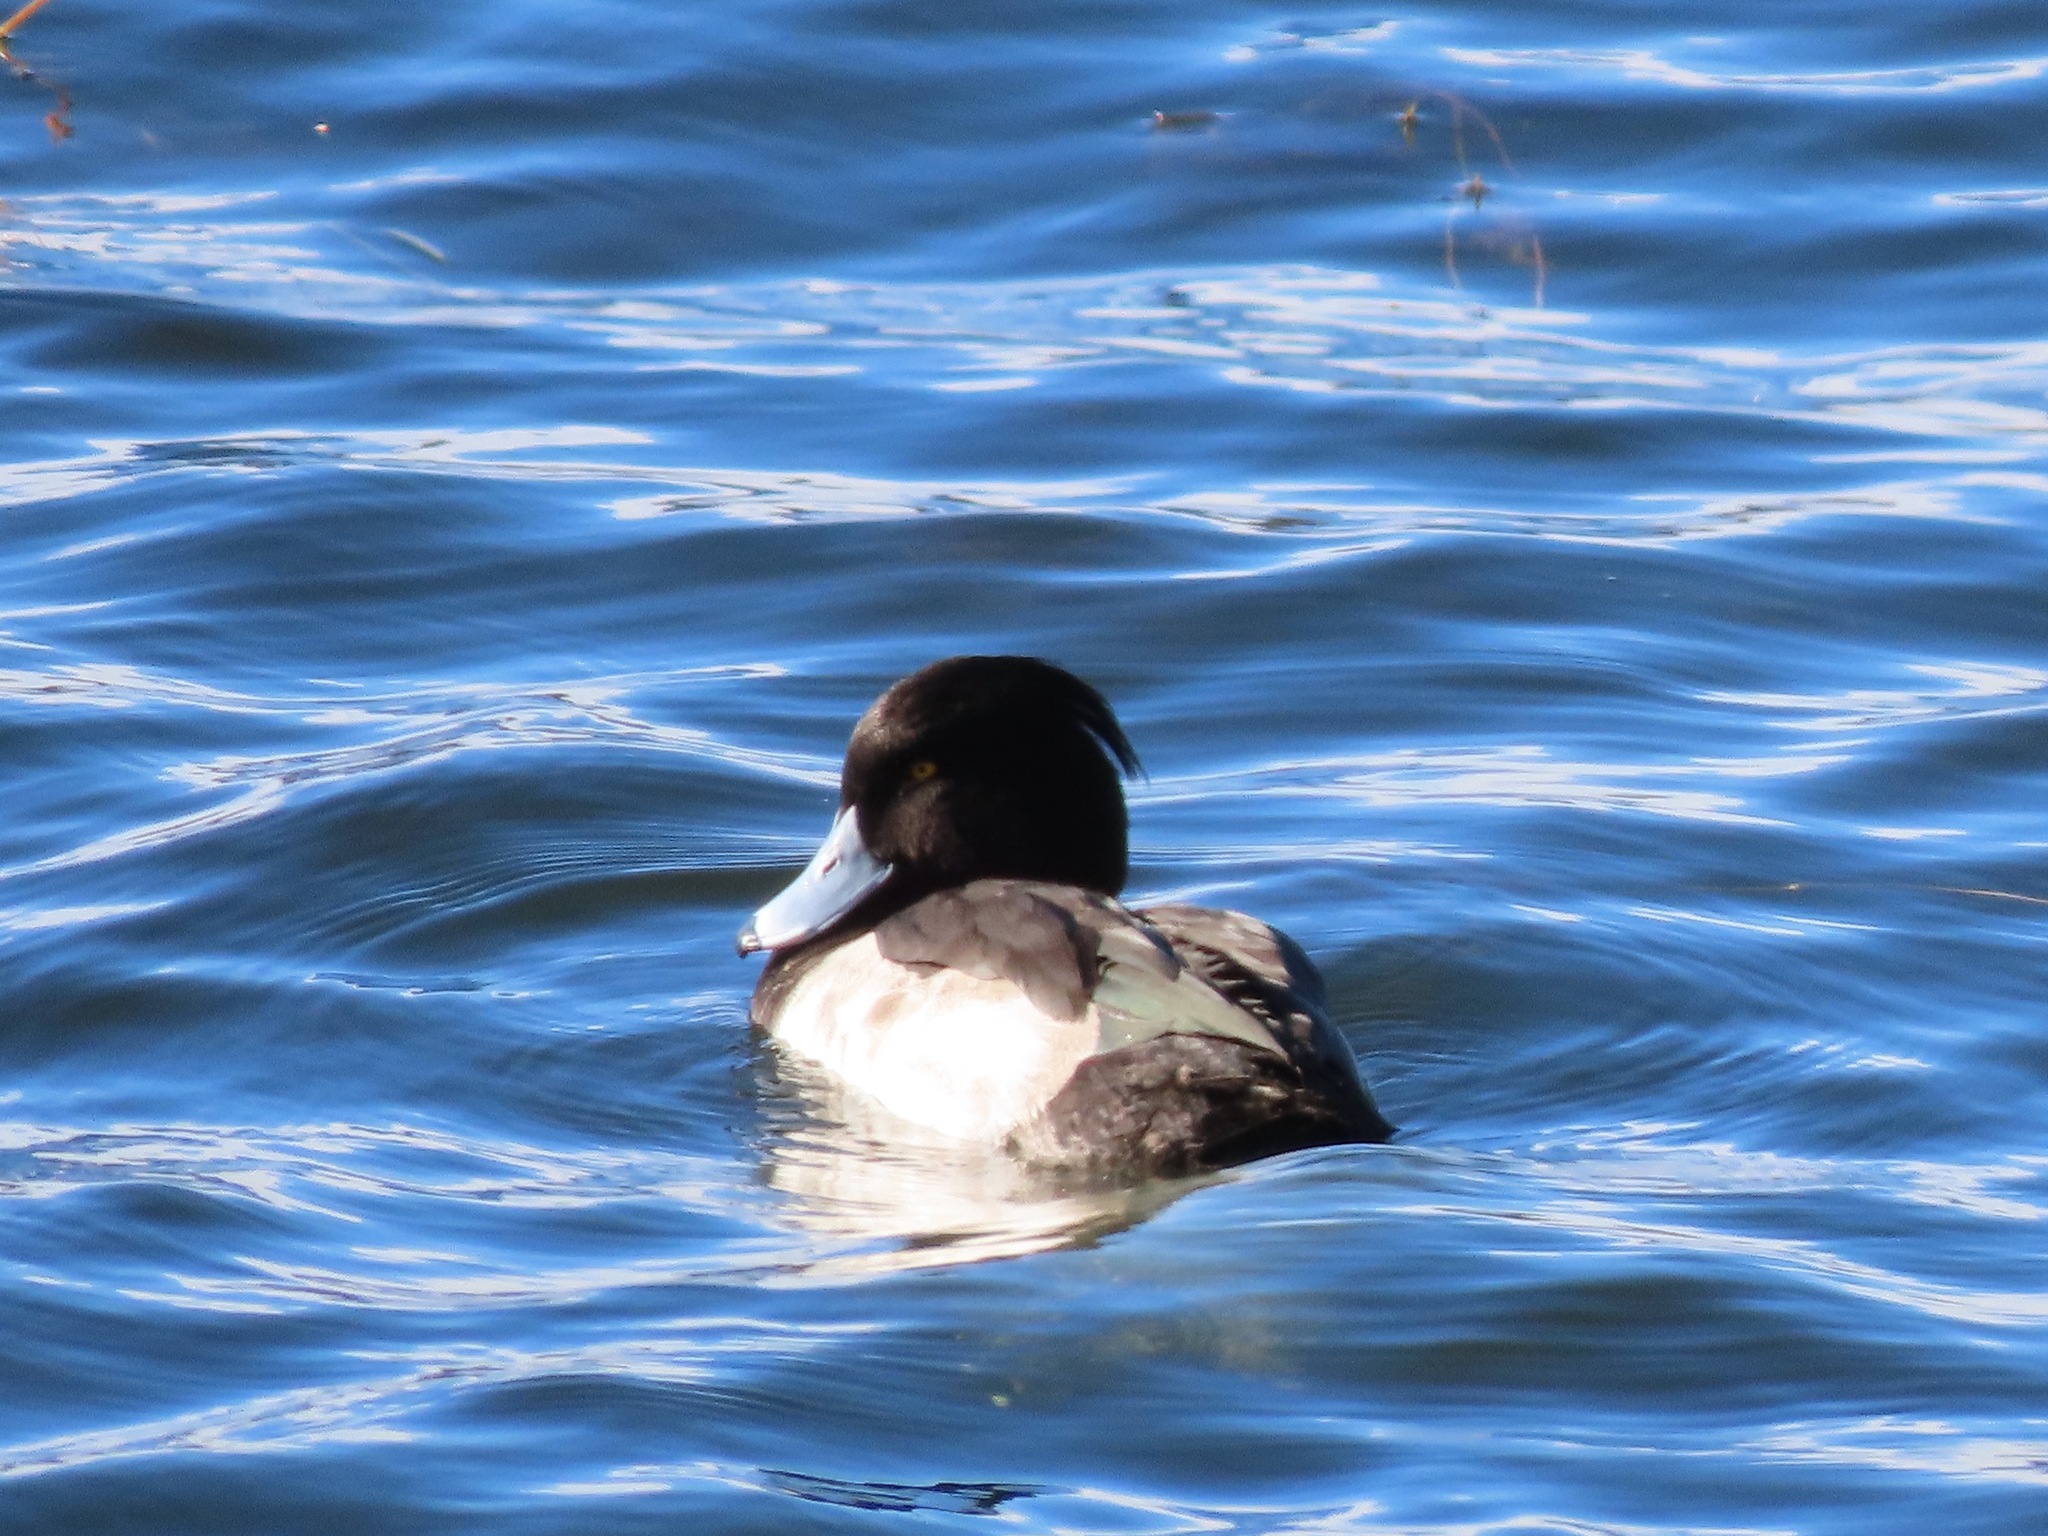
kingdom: Animalia
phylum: Chordata
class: Aves
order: Anseriformes
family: Anatidae
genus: Aythya
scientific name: Aythya fuligula
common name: Tufted duck
